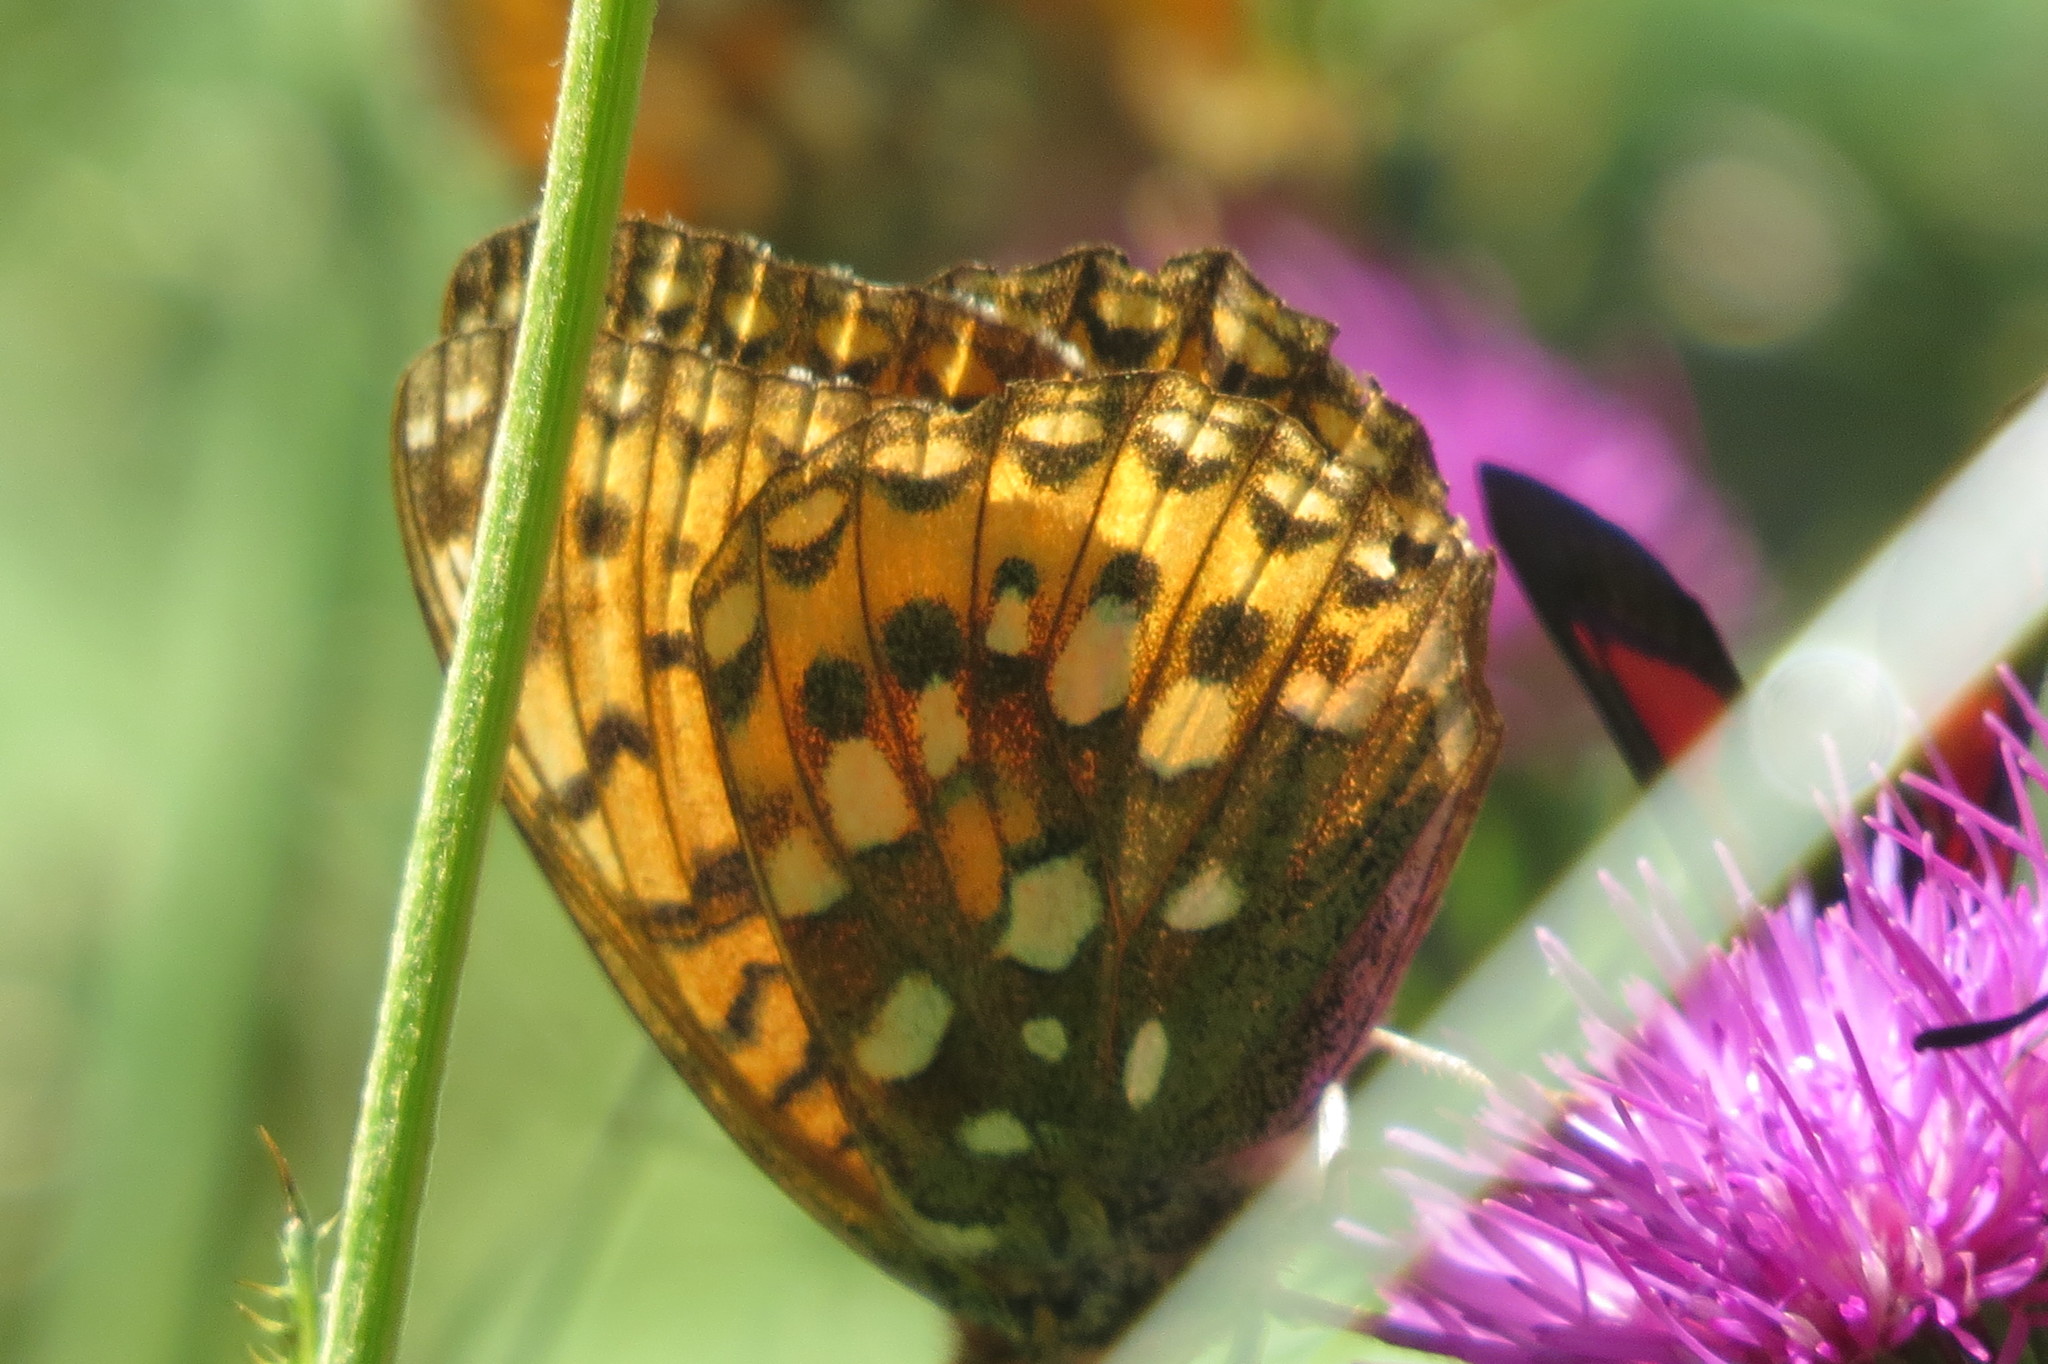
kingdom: Animalia
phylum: Arthropoda
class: Insecta
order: Lepidoptera
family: Nymphalidae
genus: Speyeria
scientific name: Speyeria aglaja
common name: Dark green fritillary
